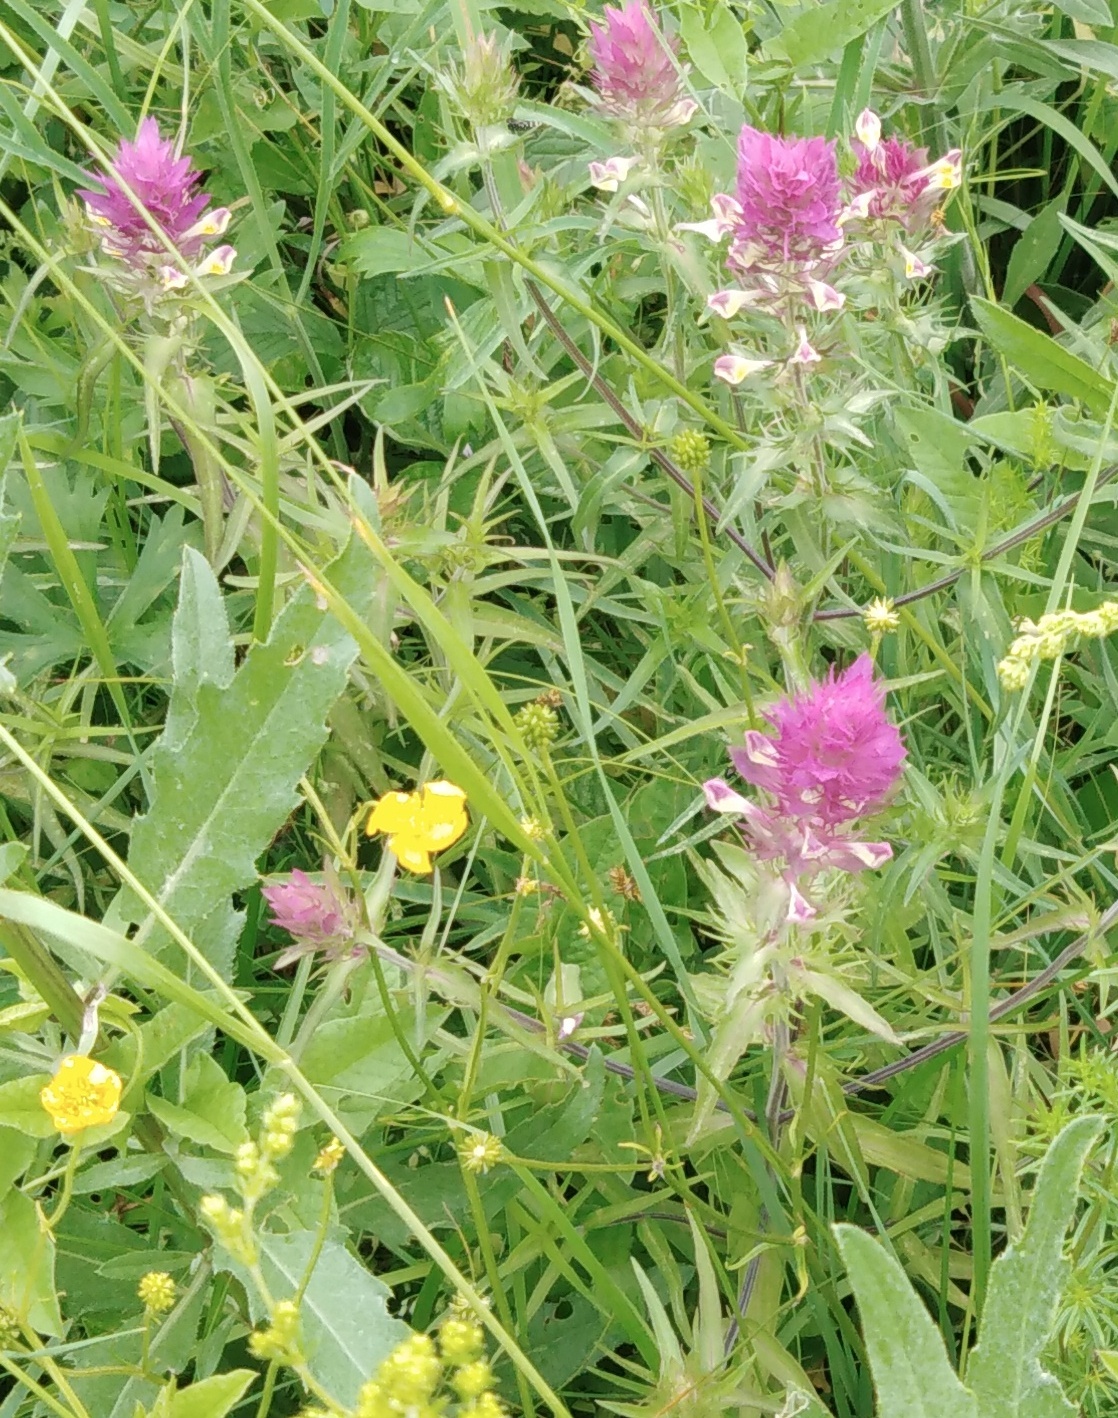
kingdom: Plantae
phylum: Tracheophyta
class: Magnoliopsida
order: Lamiales
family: Orobanchaceae
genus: Melampyrum
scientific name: Melampyrum arvense
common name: Field cow-wheat
